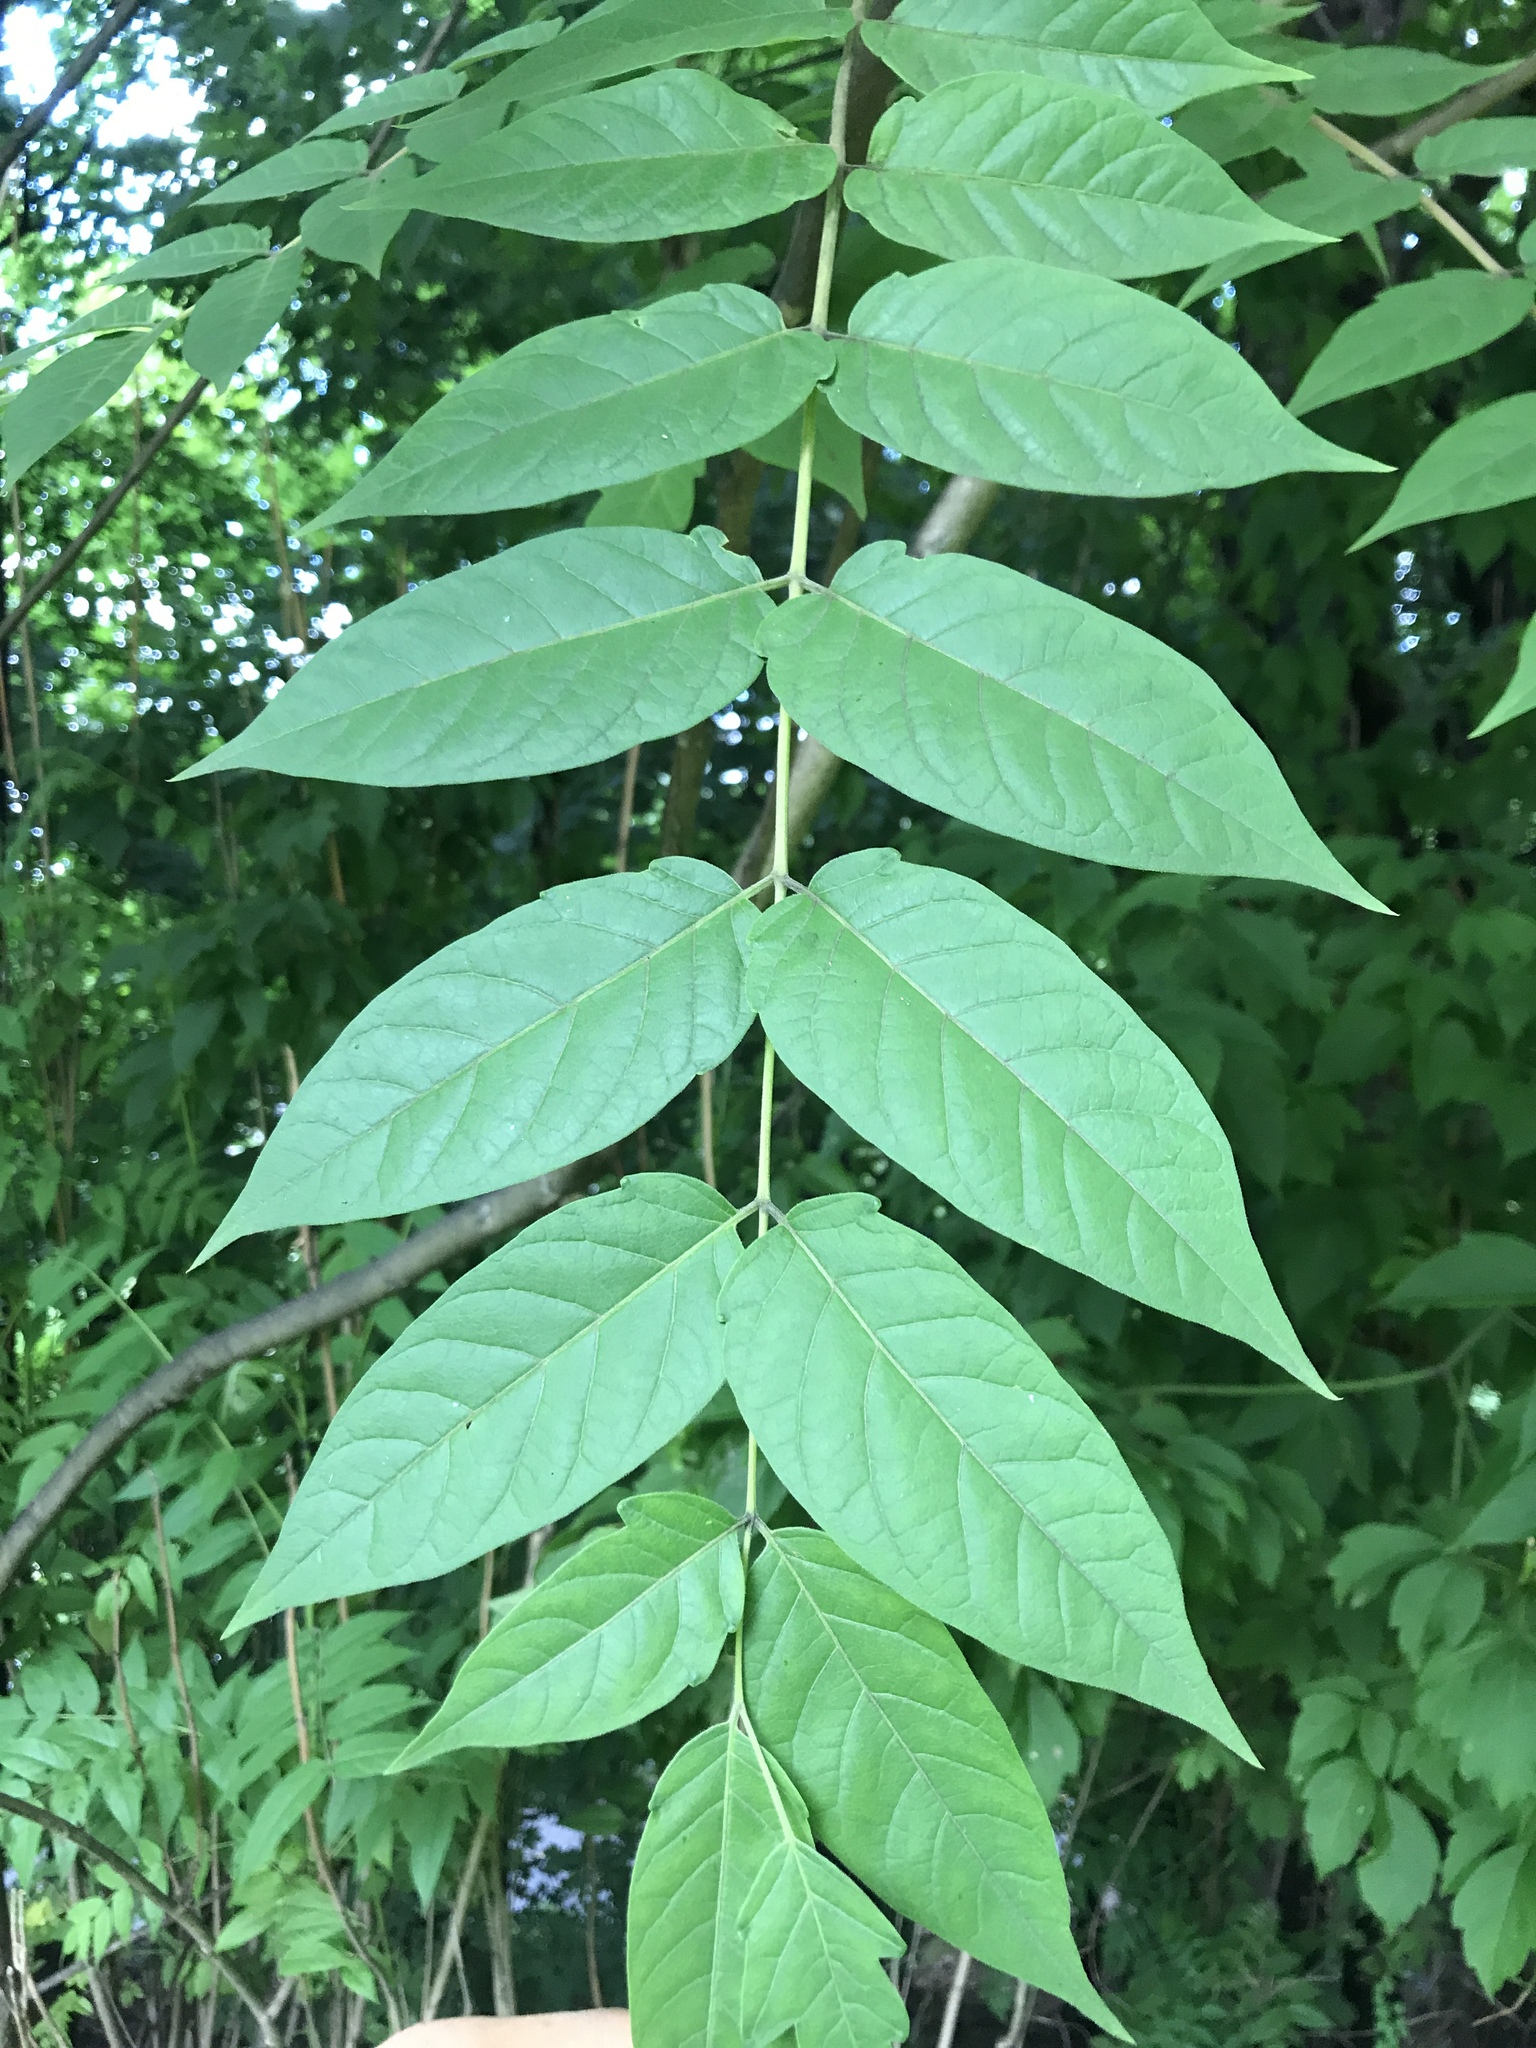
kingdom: Plantae
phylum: Tracheophyta
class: Magnoliopsida
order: Sapindales
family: Simaroubaceae
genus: Ailanthus
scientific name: Ailanthus altissima
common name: Tree-of-heaven
